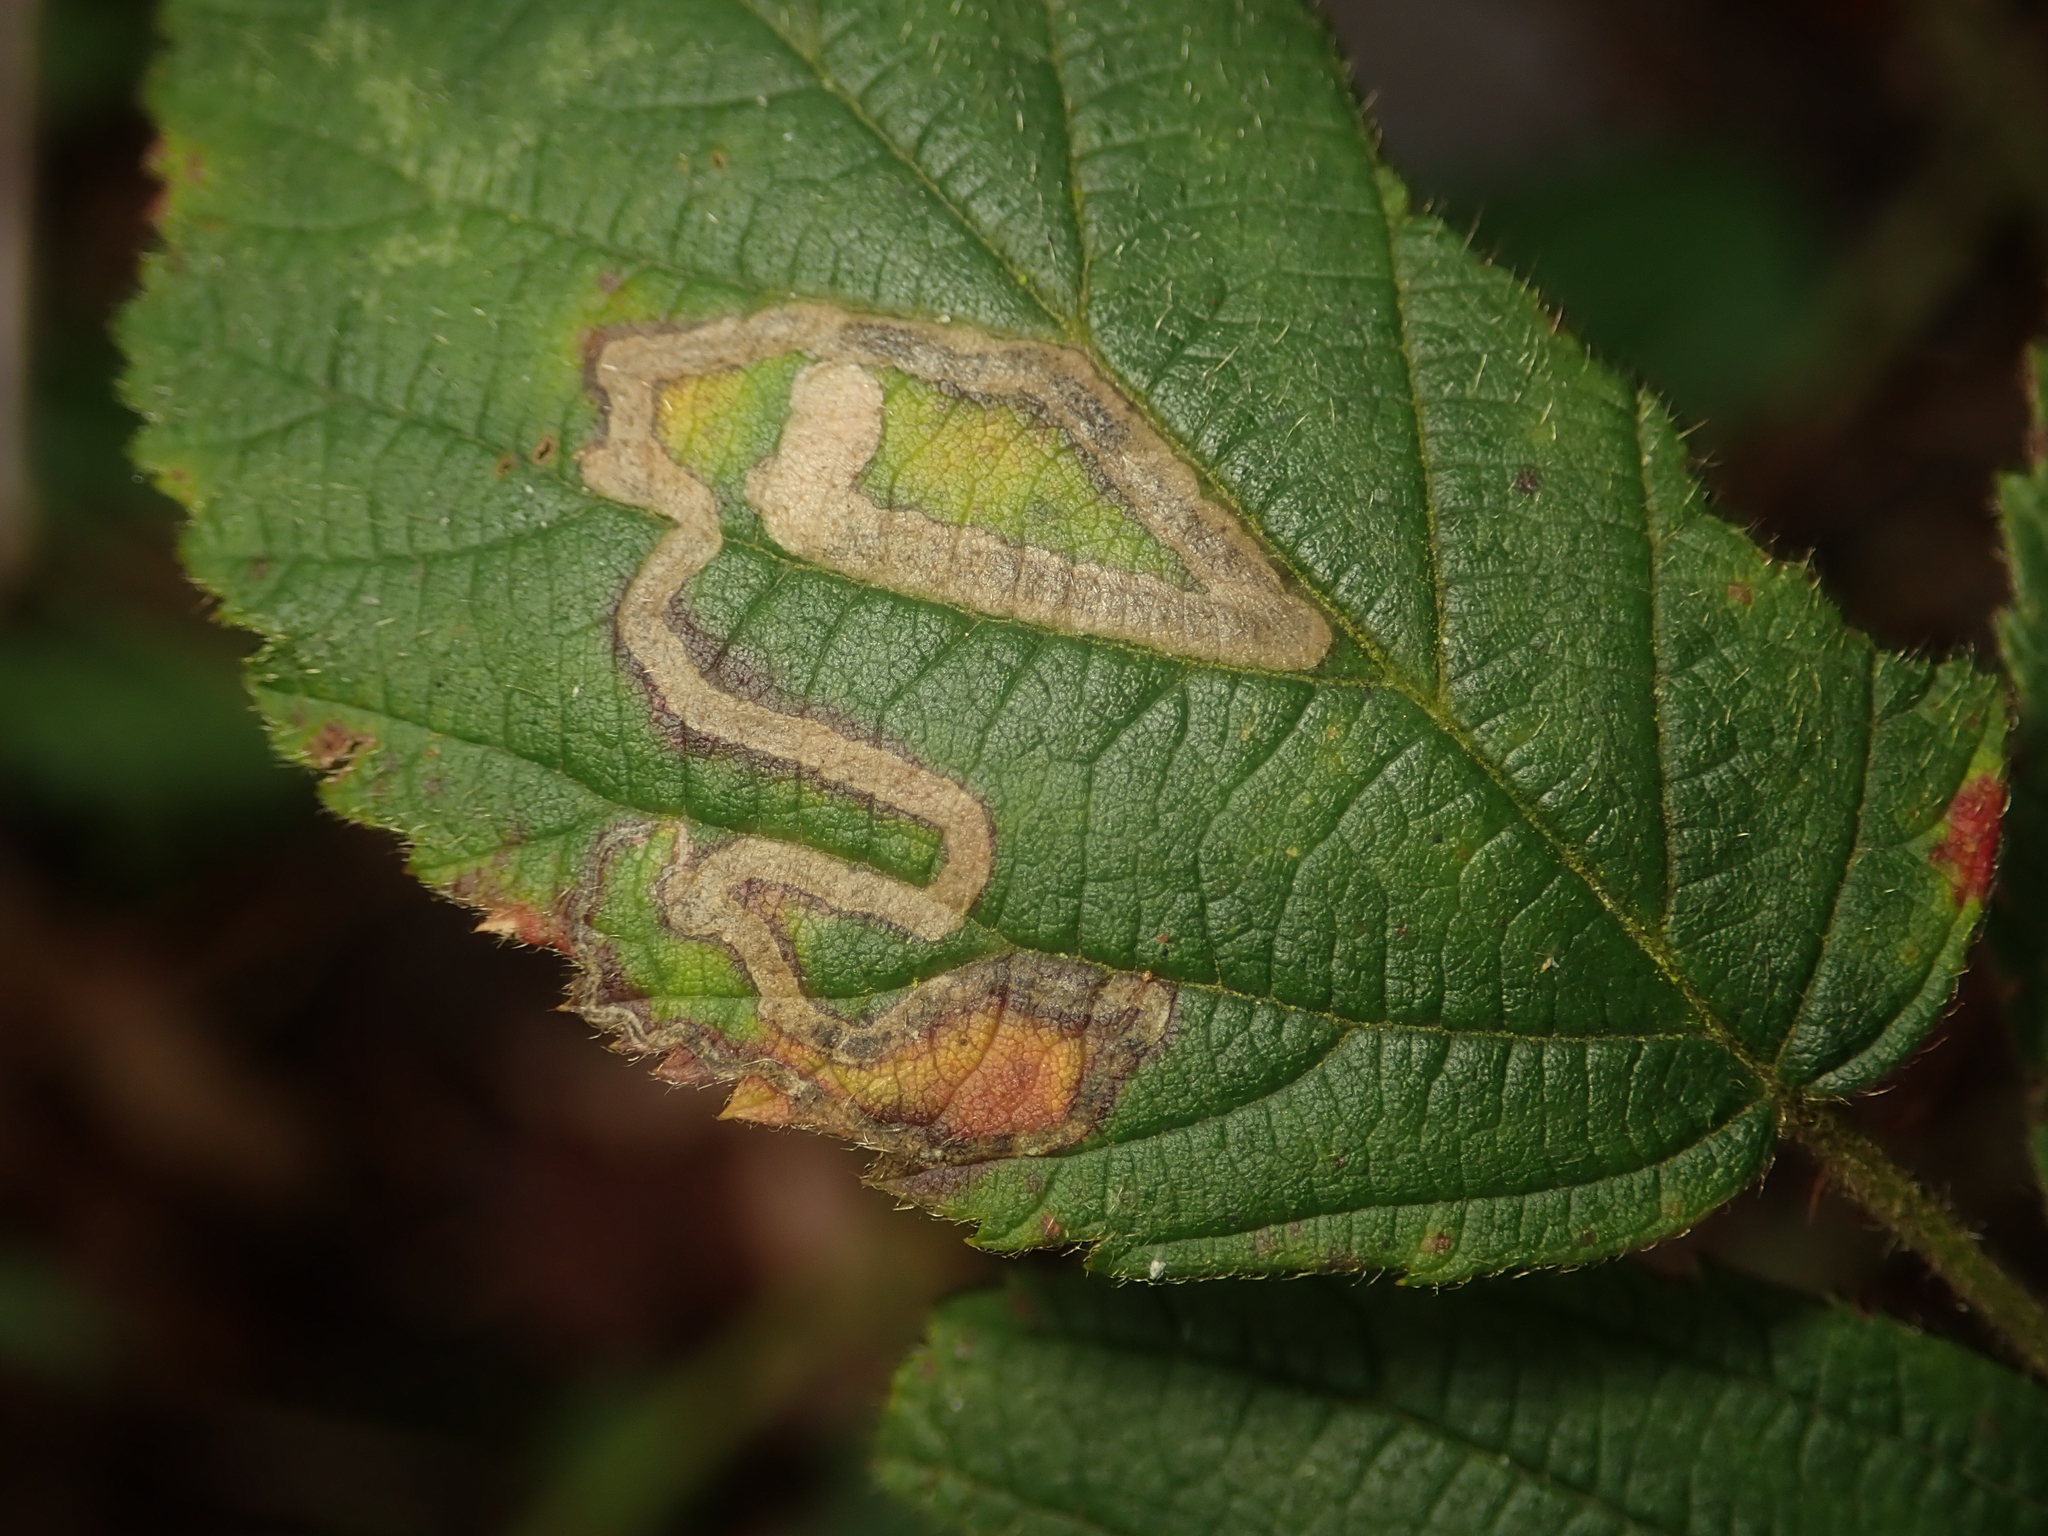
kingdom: Animalia
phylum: Arthropoda
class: Insecta
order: Lepidoptera
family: Nepticulidae
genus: Stigmella
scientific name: Stigmella aurella
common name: Golden pigmy
